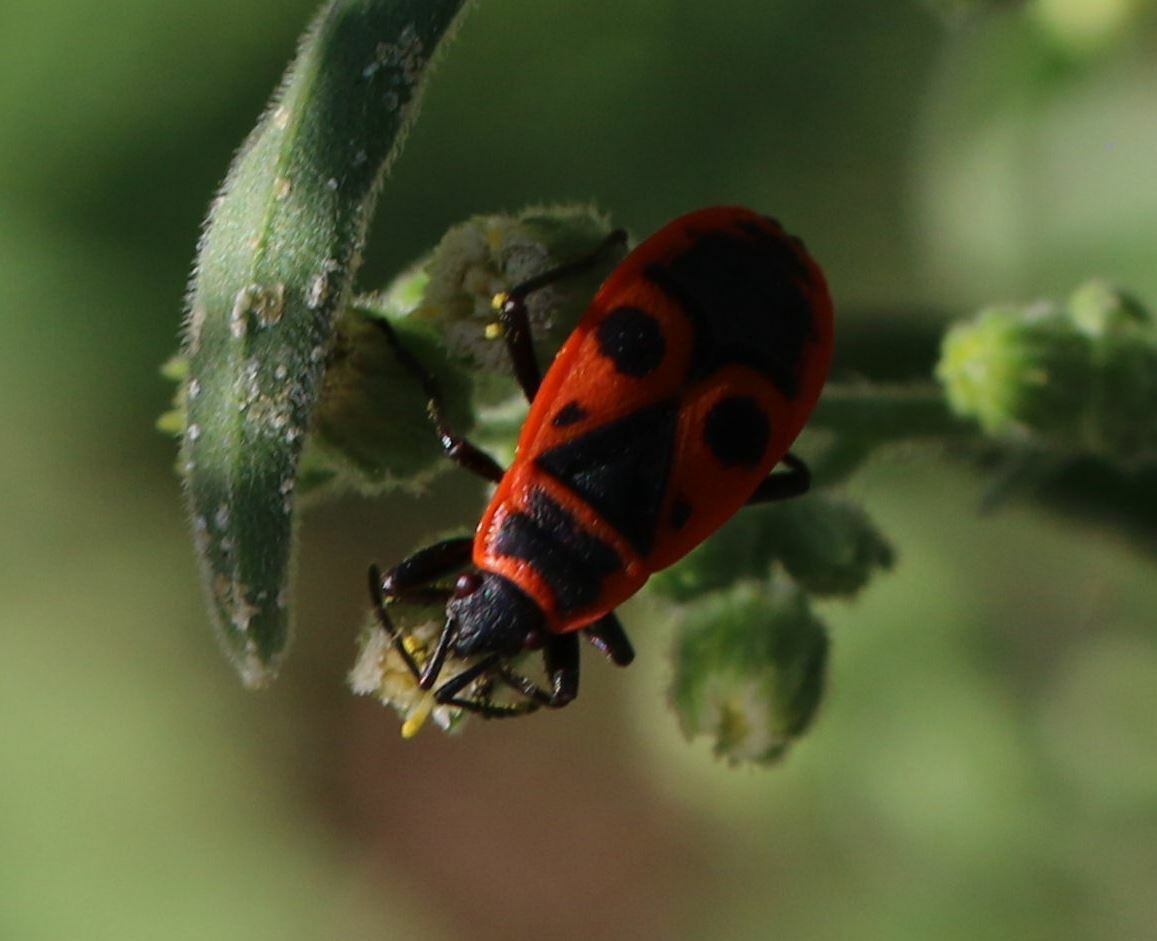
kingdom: Animalia
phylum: Arthropoda
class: Insecta
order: Hemiptera
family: Pyrrhocoridae
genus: Pyrrhocoris
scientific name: Pyrrhocoris apterus
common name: Firebug
